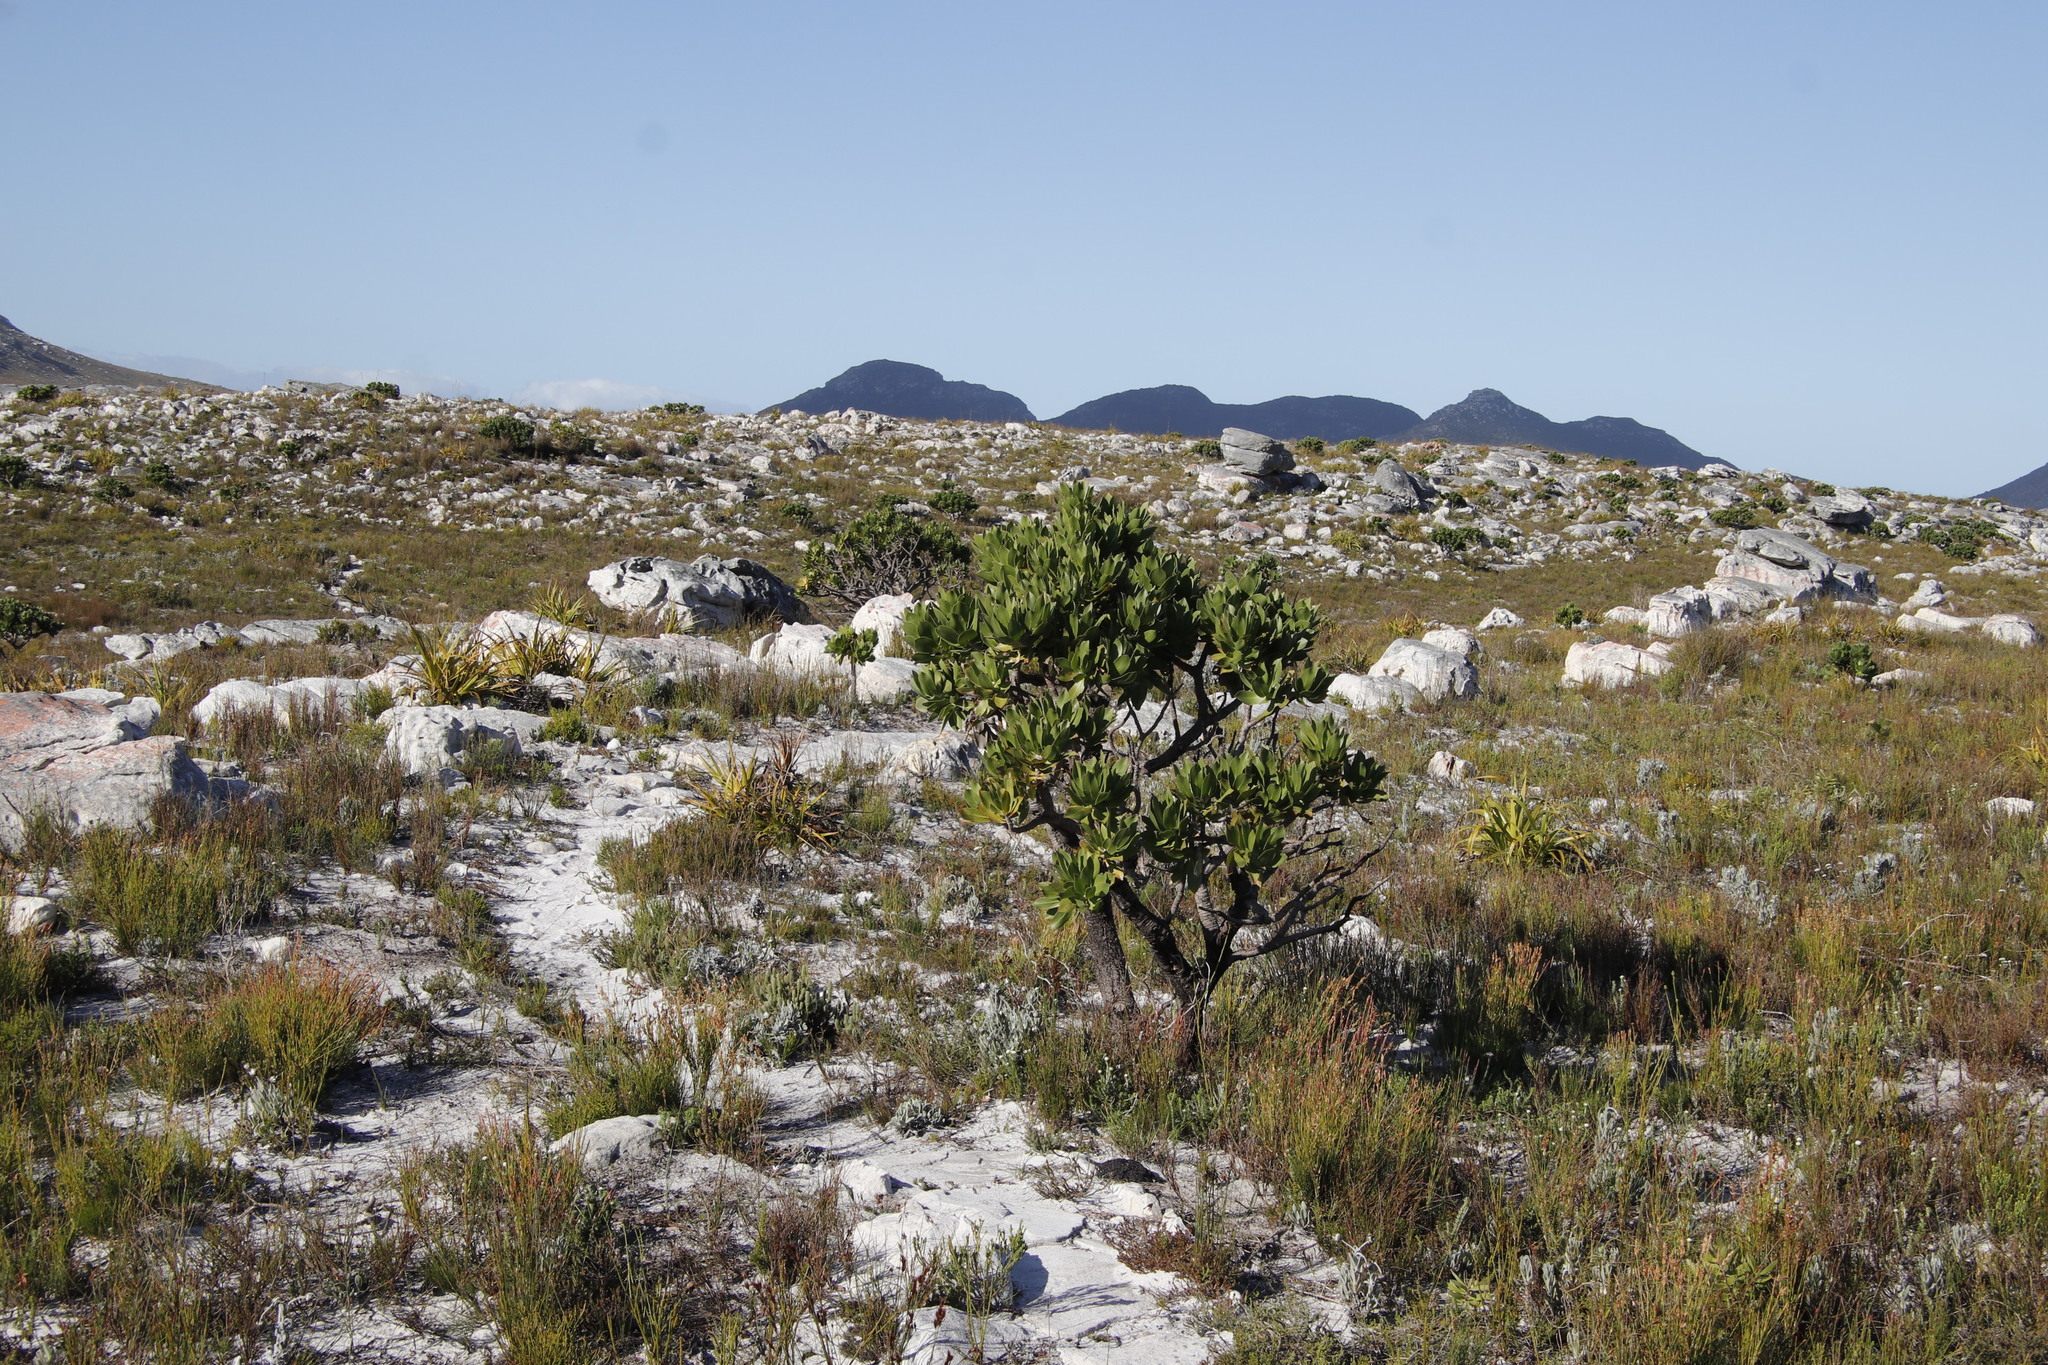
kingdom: Plantae
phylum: Tracheophyta
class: Magnoliopsida
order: Proteales
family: Proteaceae
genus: Leucospermum
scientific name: Leucospermum conocarpodendron
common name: Tree pincushion
